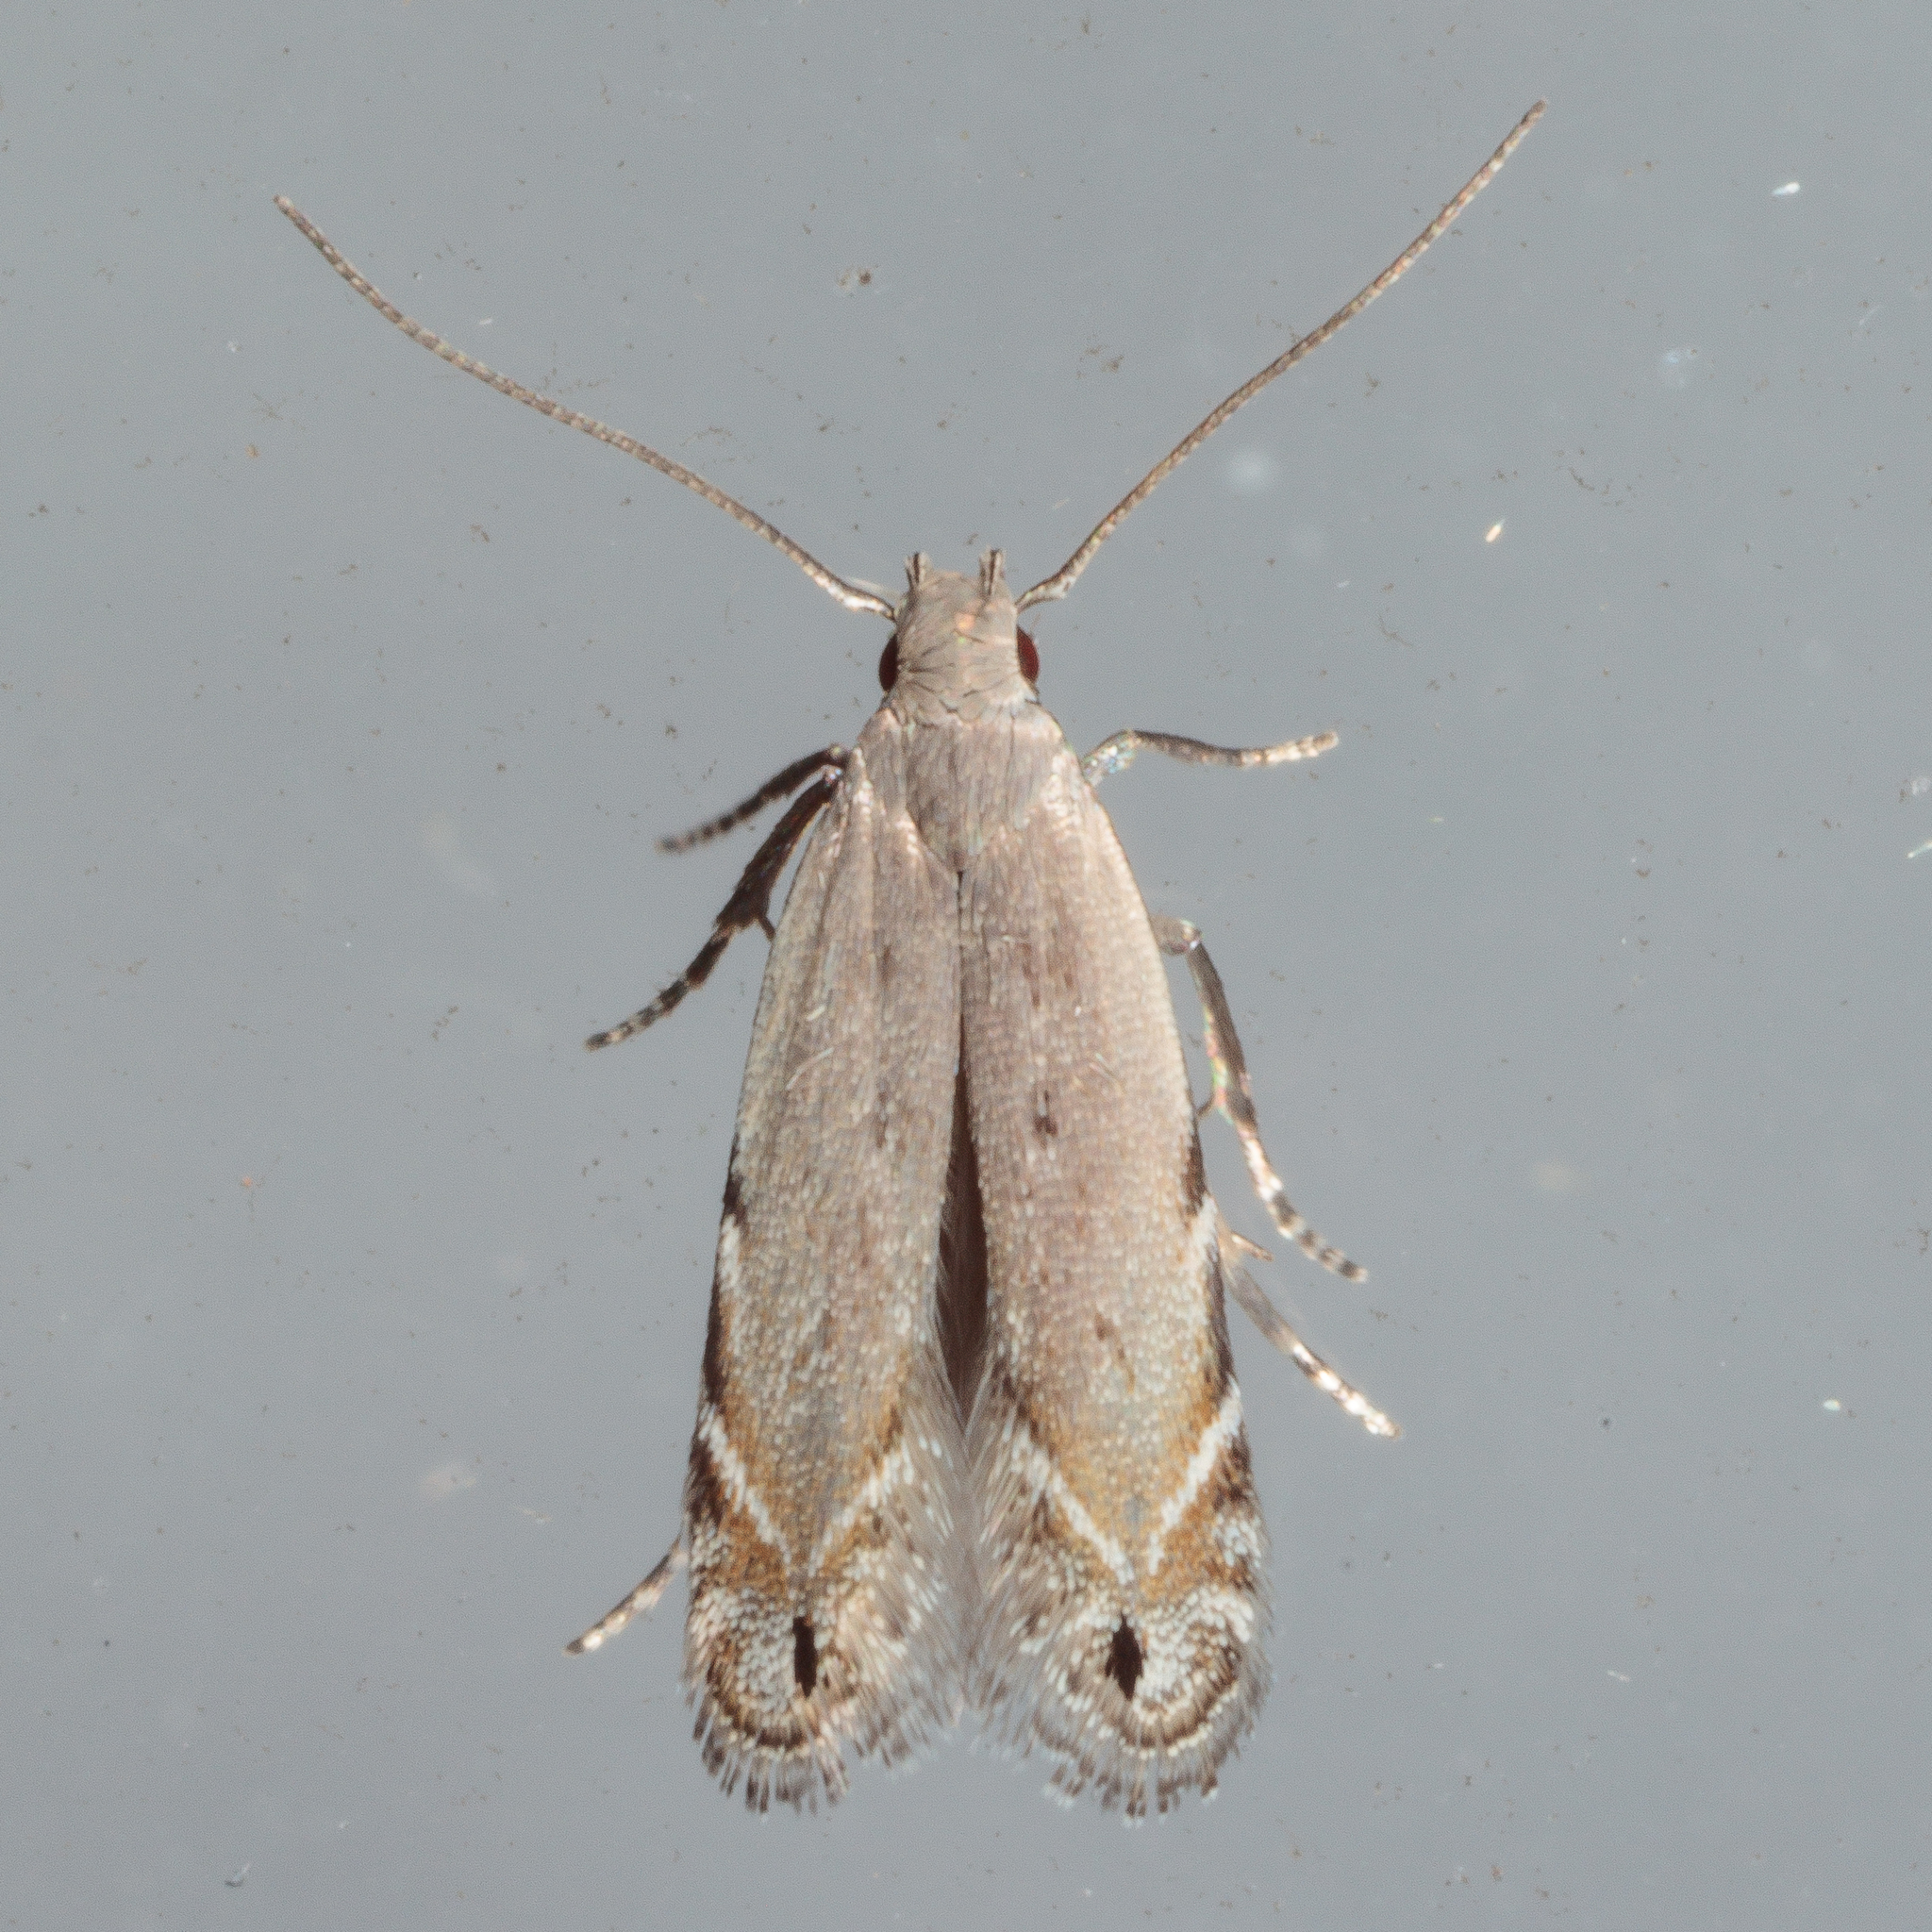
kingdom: Animalia
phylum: Arthropoda
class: Insecta
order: Lepidoptera
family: Gelechiidae
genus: Battaristis
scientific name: Battaristis nigratomella
